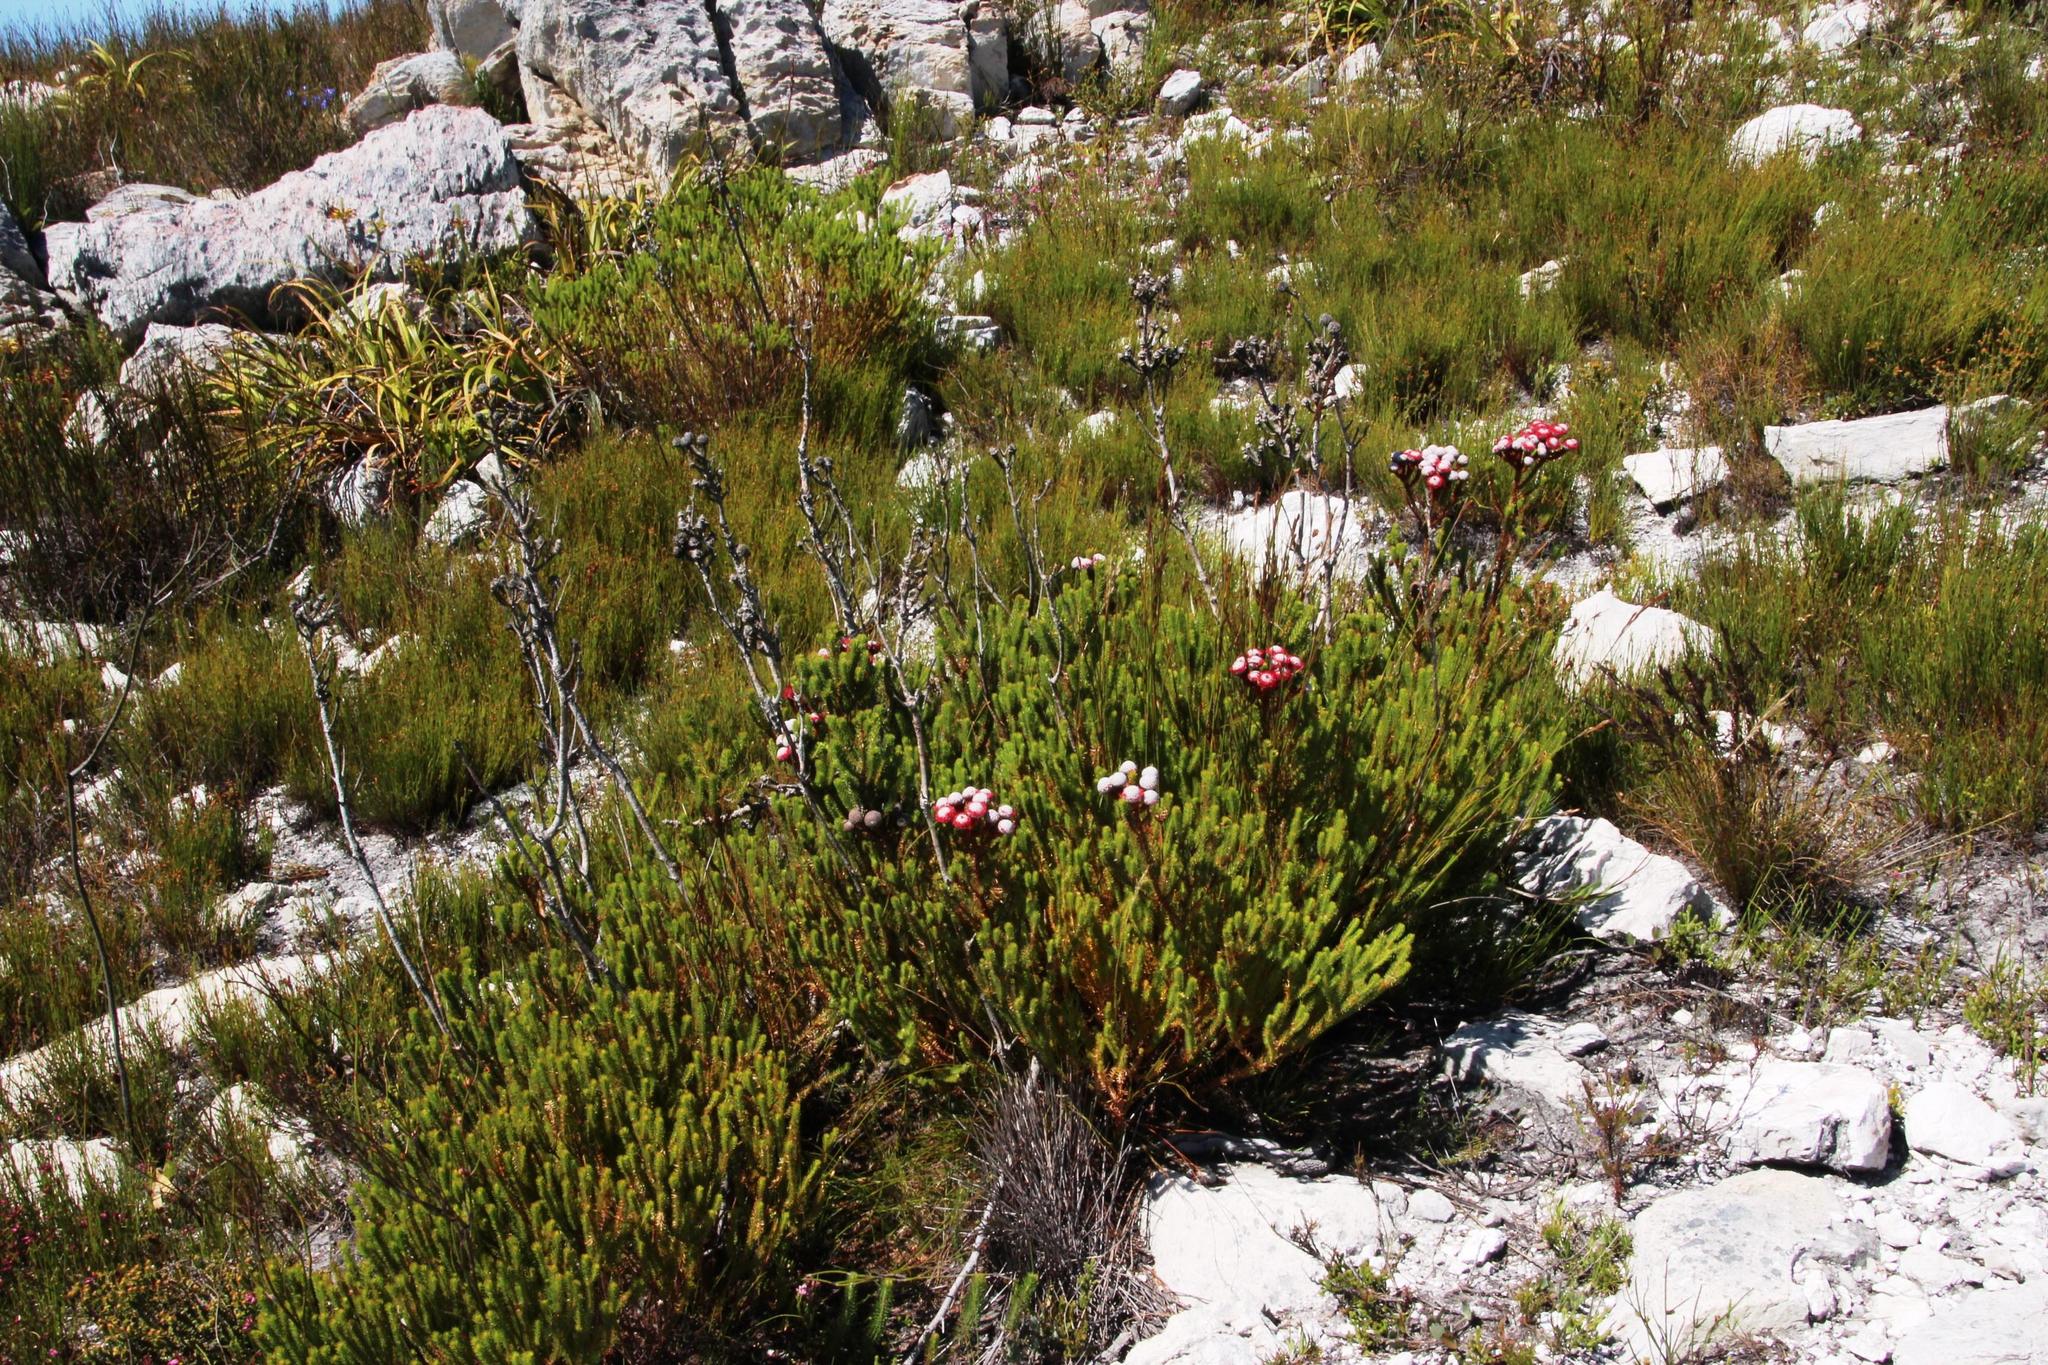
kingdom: Plantae
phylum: Tracheophyta
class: Magnoliopsida
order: Bruniales
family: Bruniaceae
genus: Berzelia
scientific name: Berzelia stokoei
